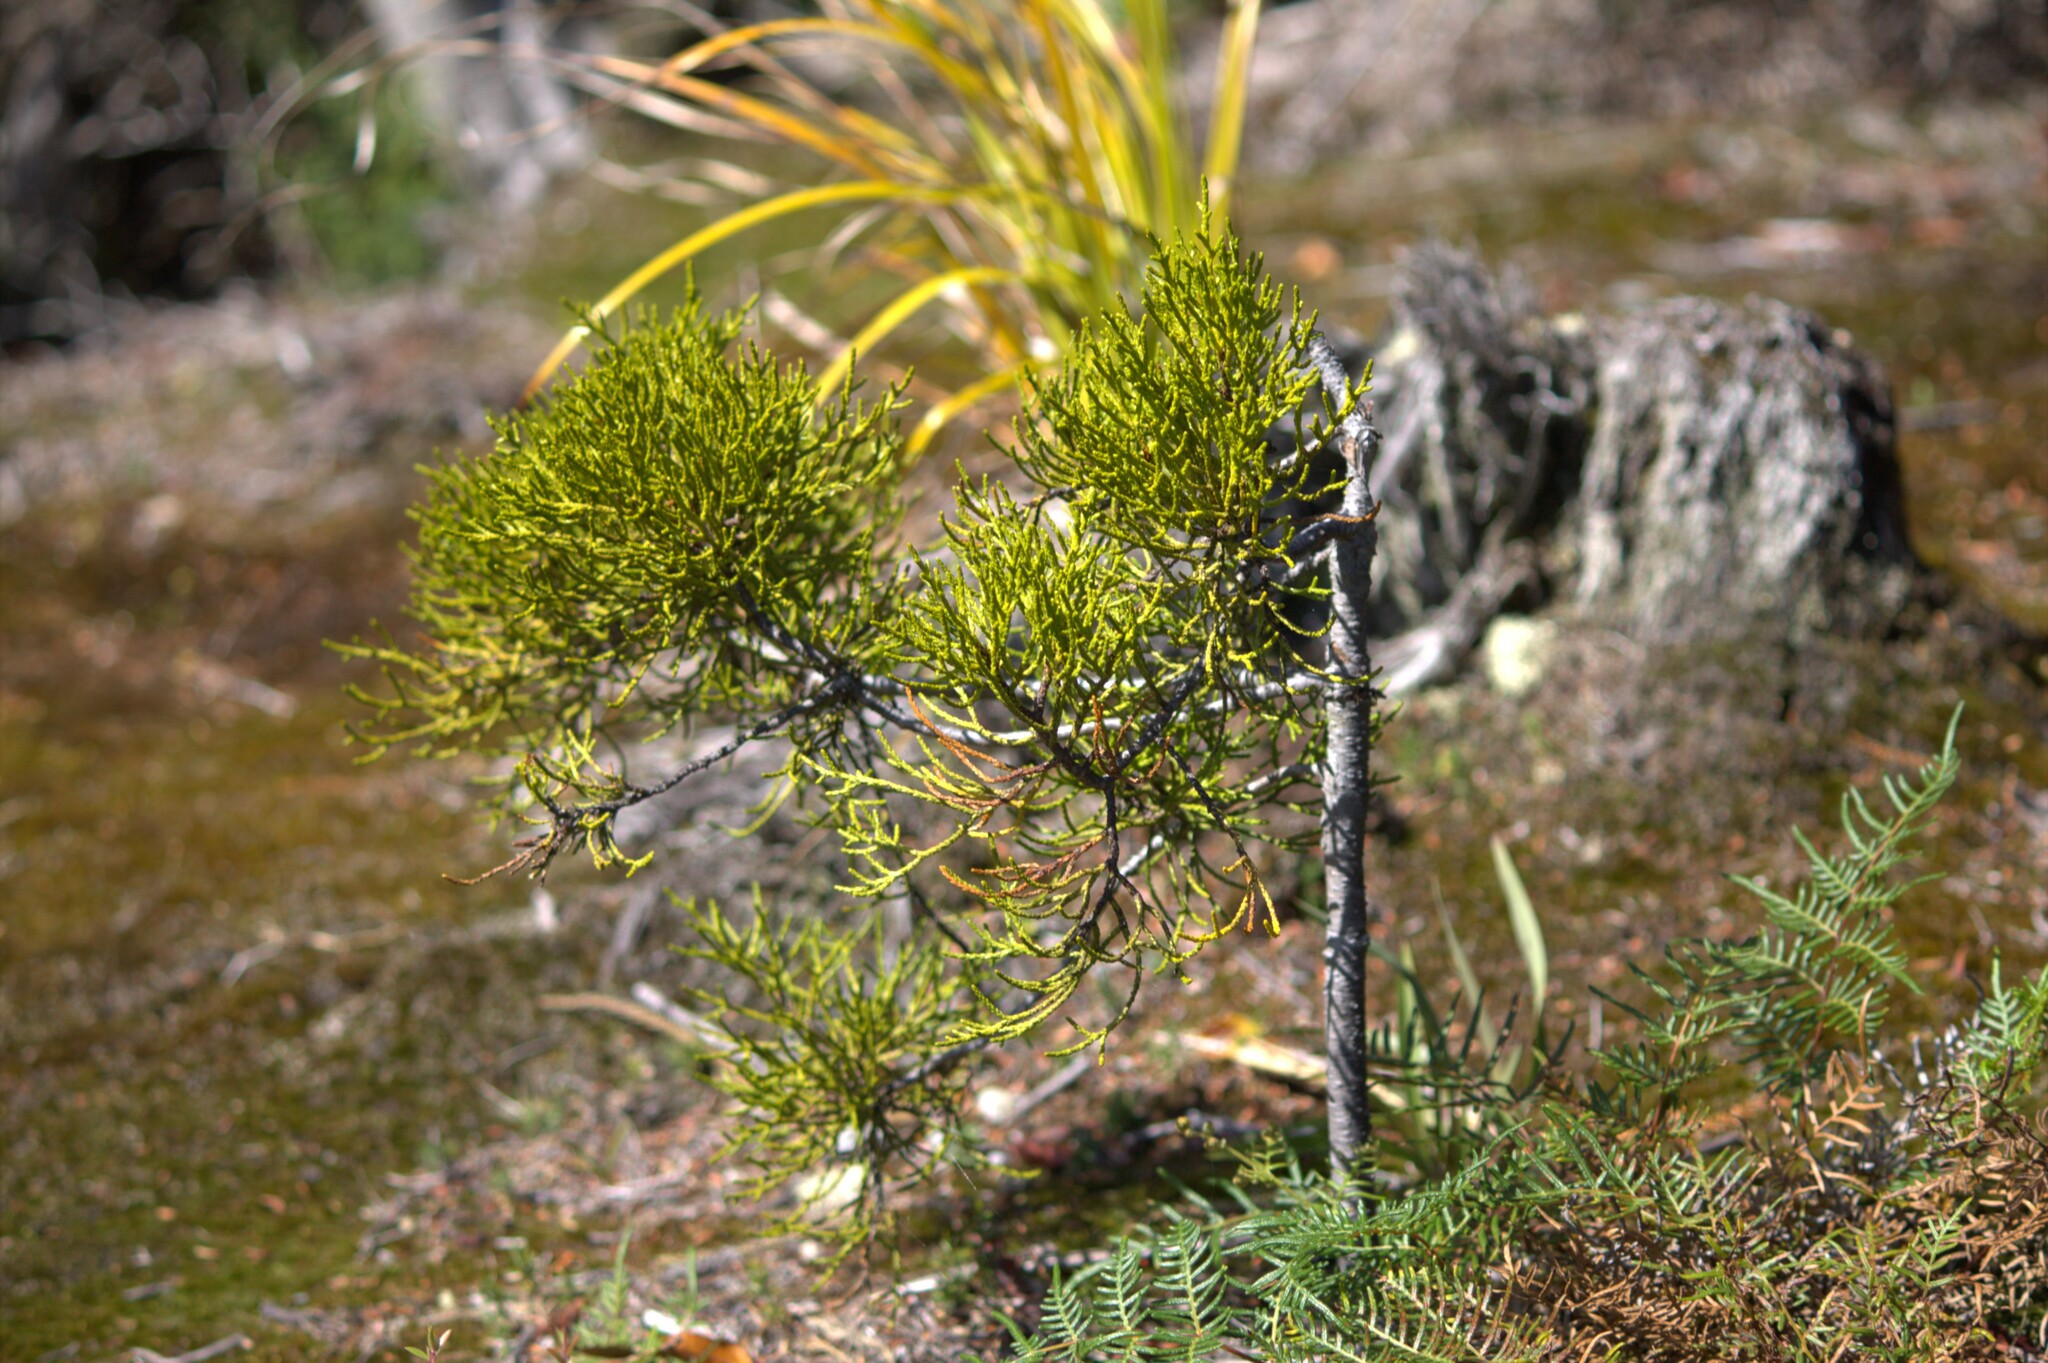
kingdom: Plantae
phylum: Tracheophyta
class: Pinopsida
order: Pinales
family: Podocarpaceae
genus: Manoao
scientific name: Manoao colensoi
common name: Silver pine
